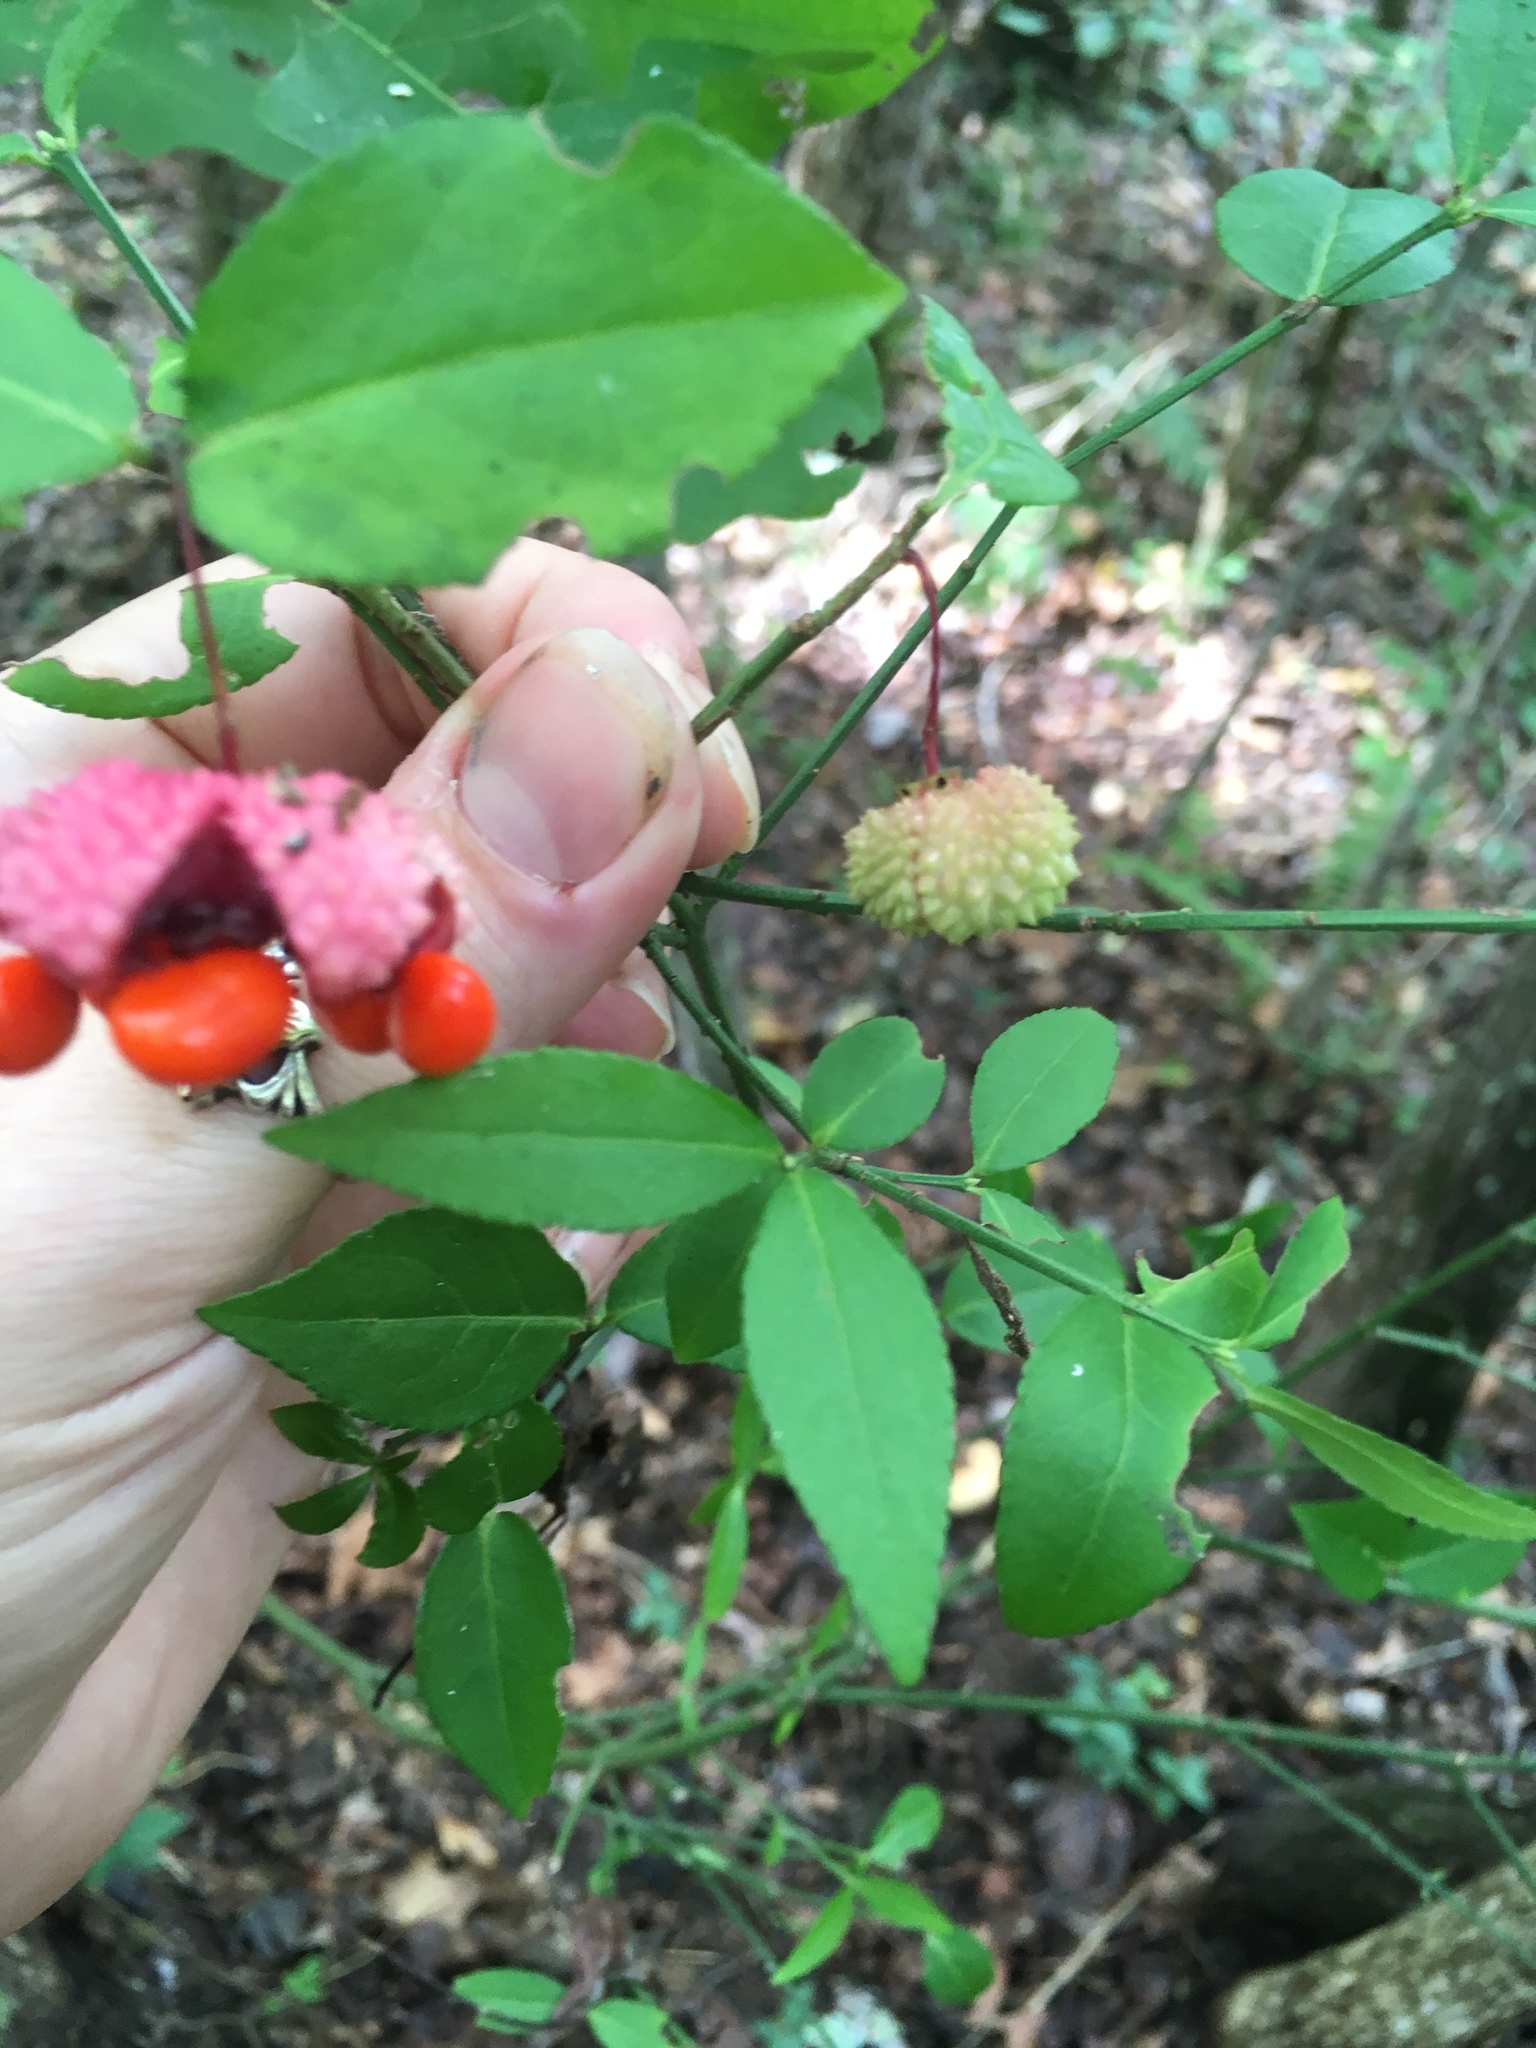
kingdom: Plantae
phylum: Tracheophyta
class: Magnoliopsida
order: Celastrales
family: Celastraceae
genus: Euonymus
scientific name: Euonymus americanus
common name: Bursting-heart
